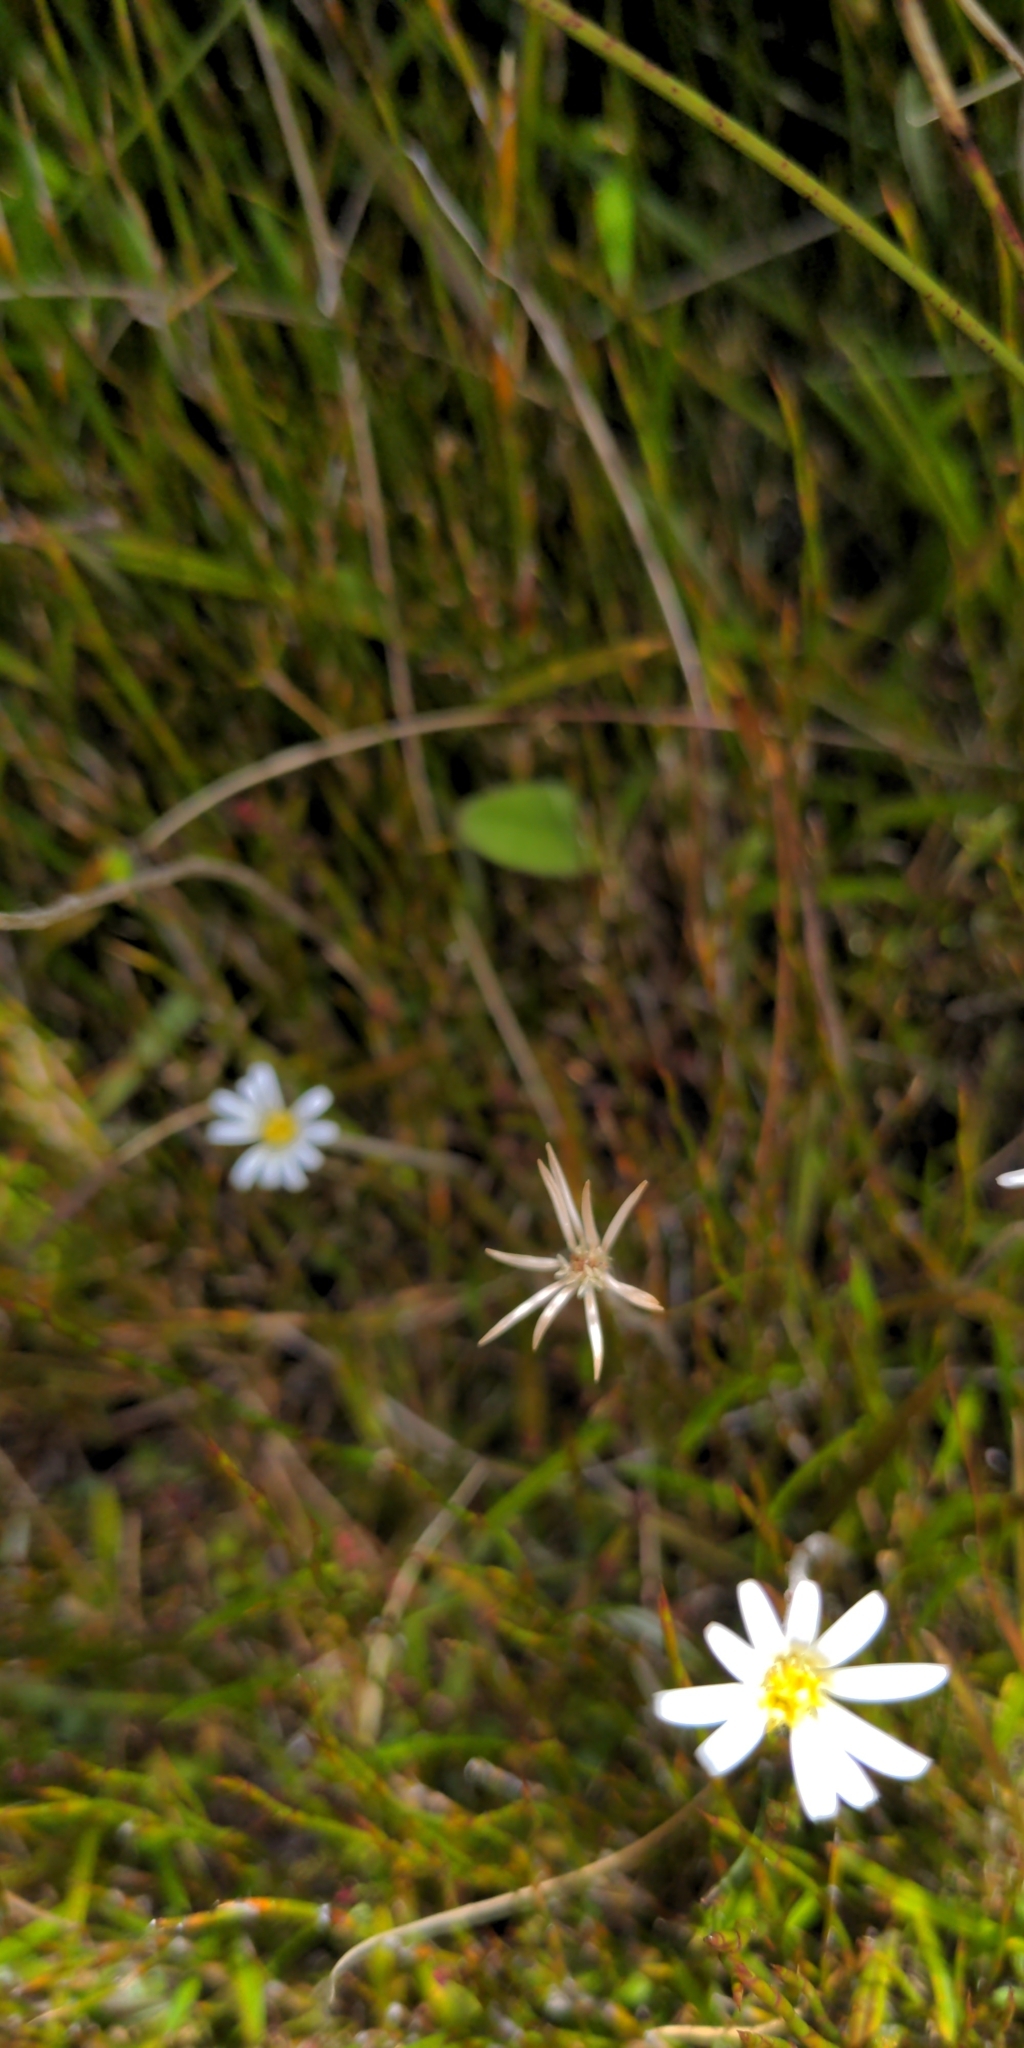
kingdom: Plantae
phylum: Tracheophyta
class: Magnoliopsida
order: Asterales
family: Asteraceae
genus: Celmisia
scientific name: Celmisia gracilenta
